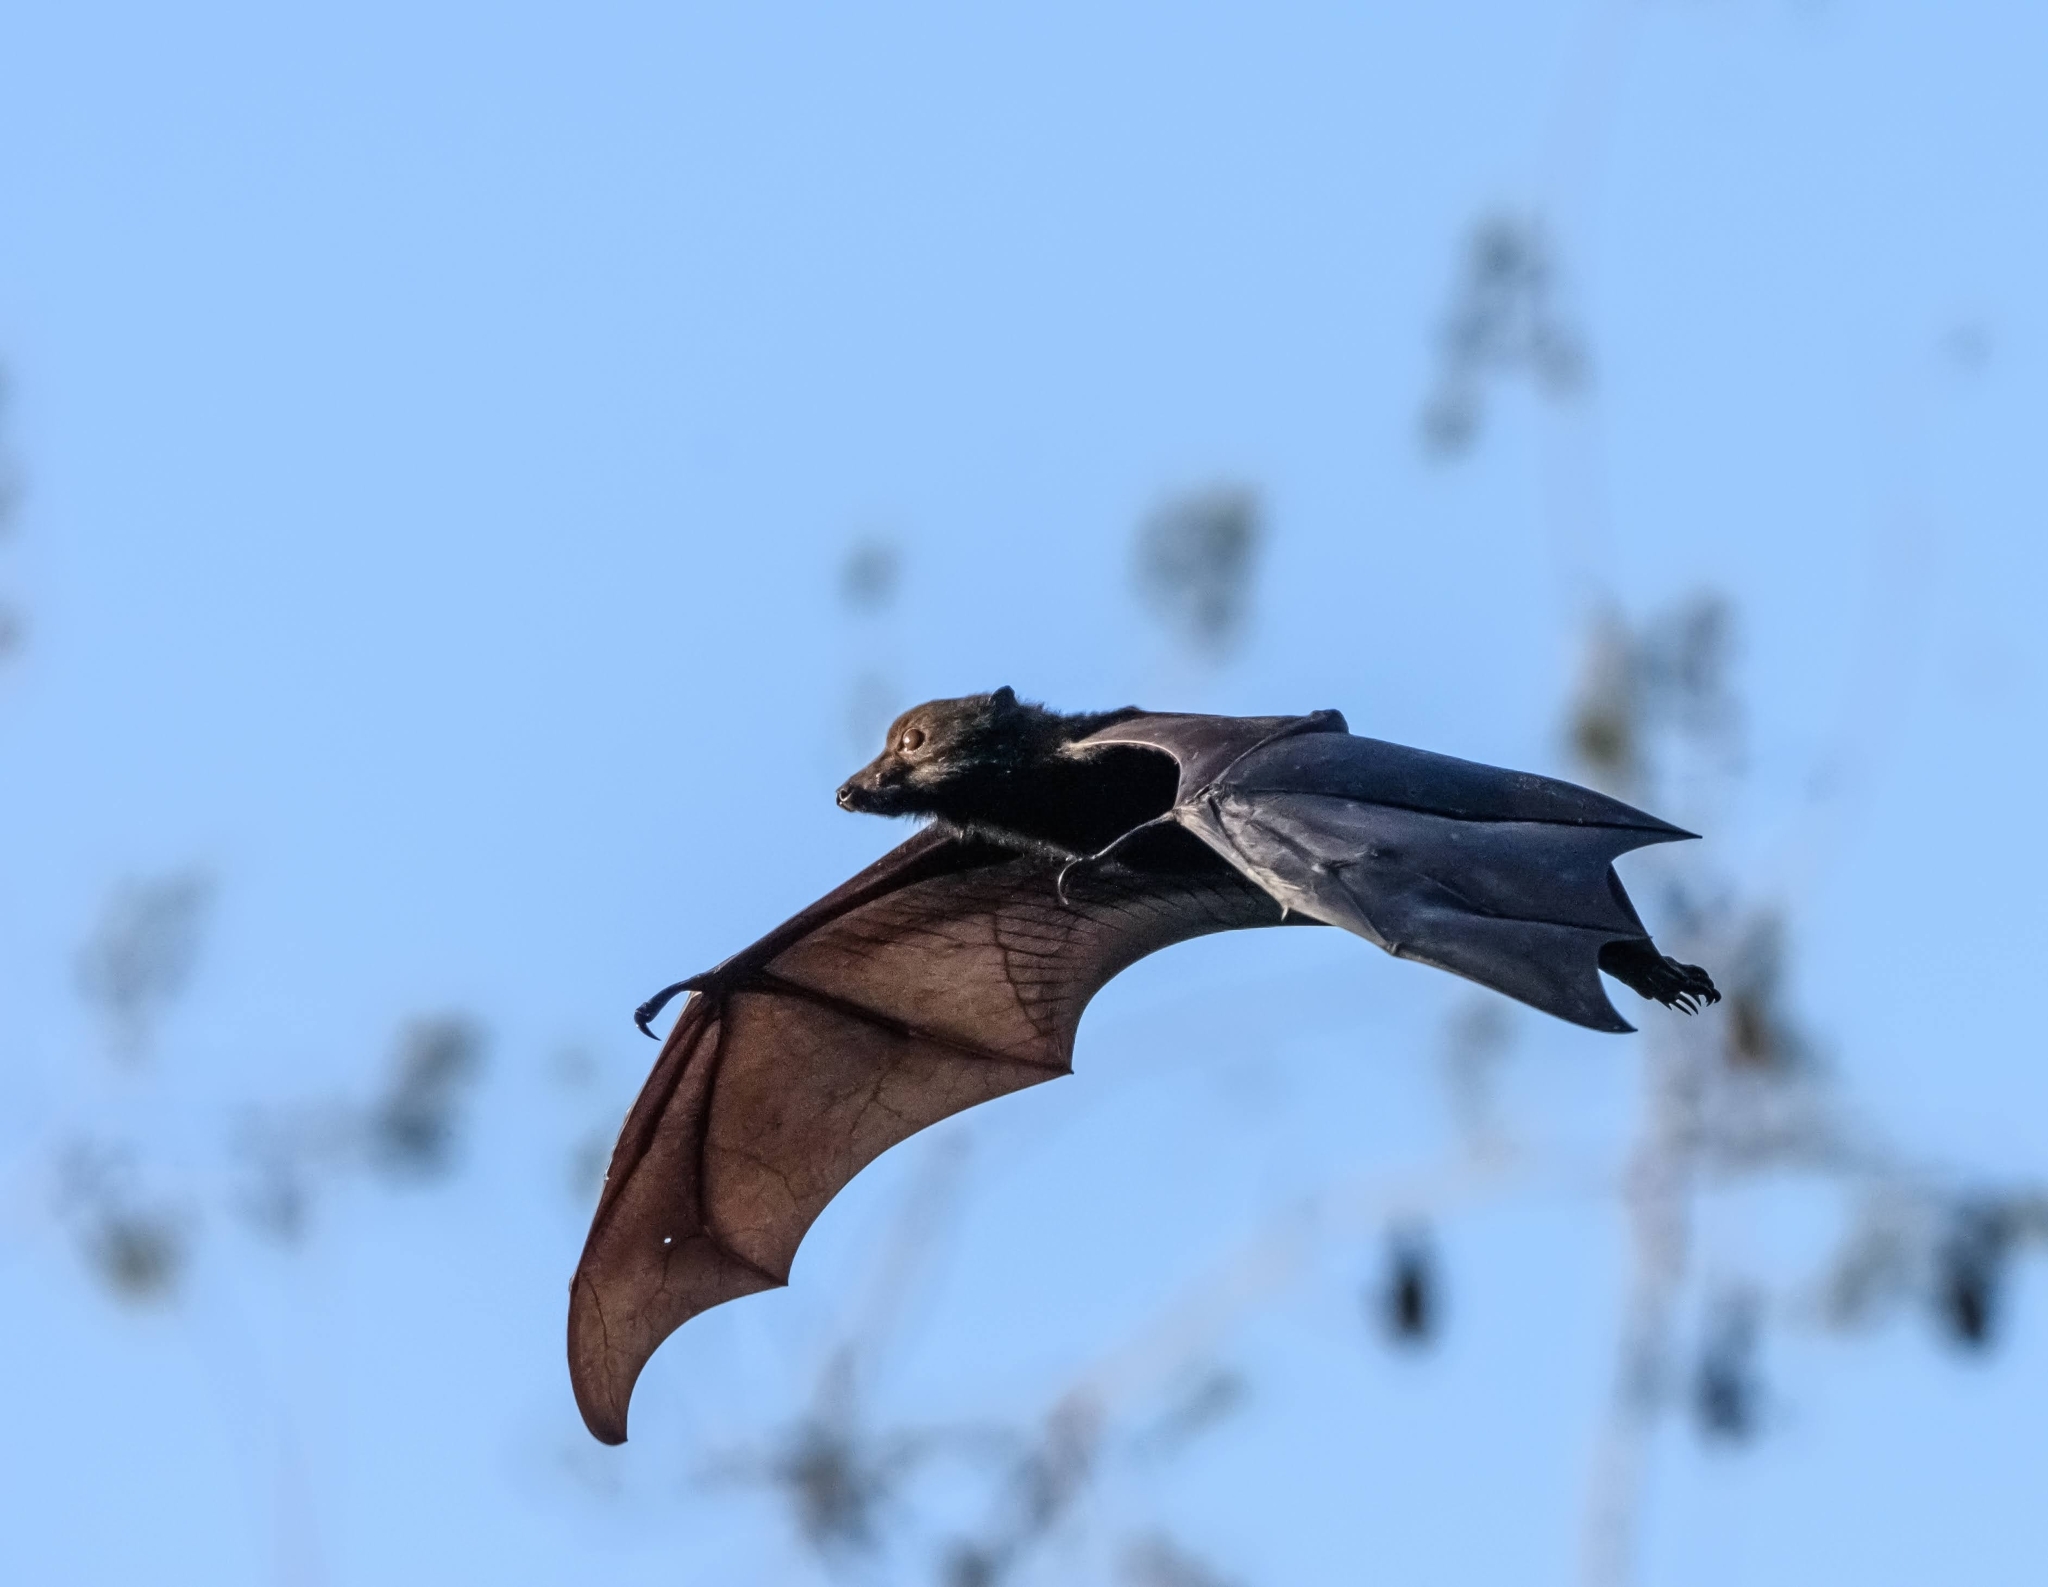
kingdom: Animalia
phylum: Chordata
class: Mammalia
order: Chiroptera
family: Pteropodidae
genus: Pteropus
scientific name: Pteropus alecto
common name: Black flying fox
